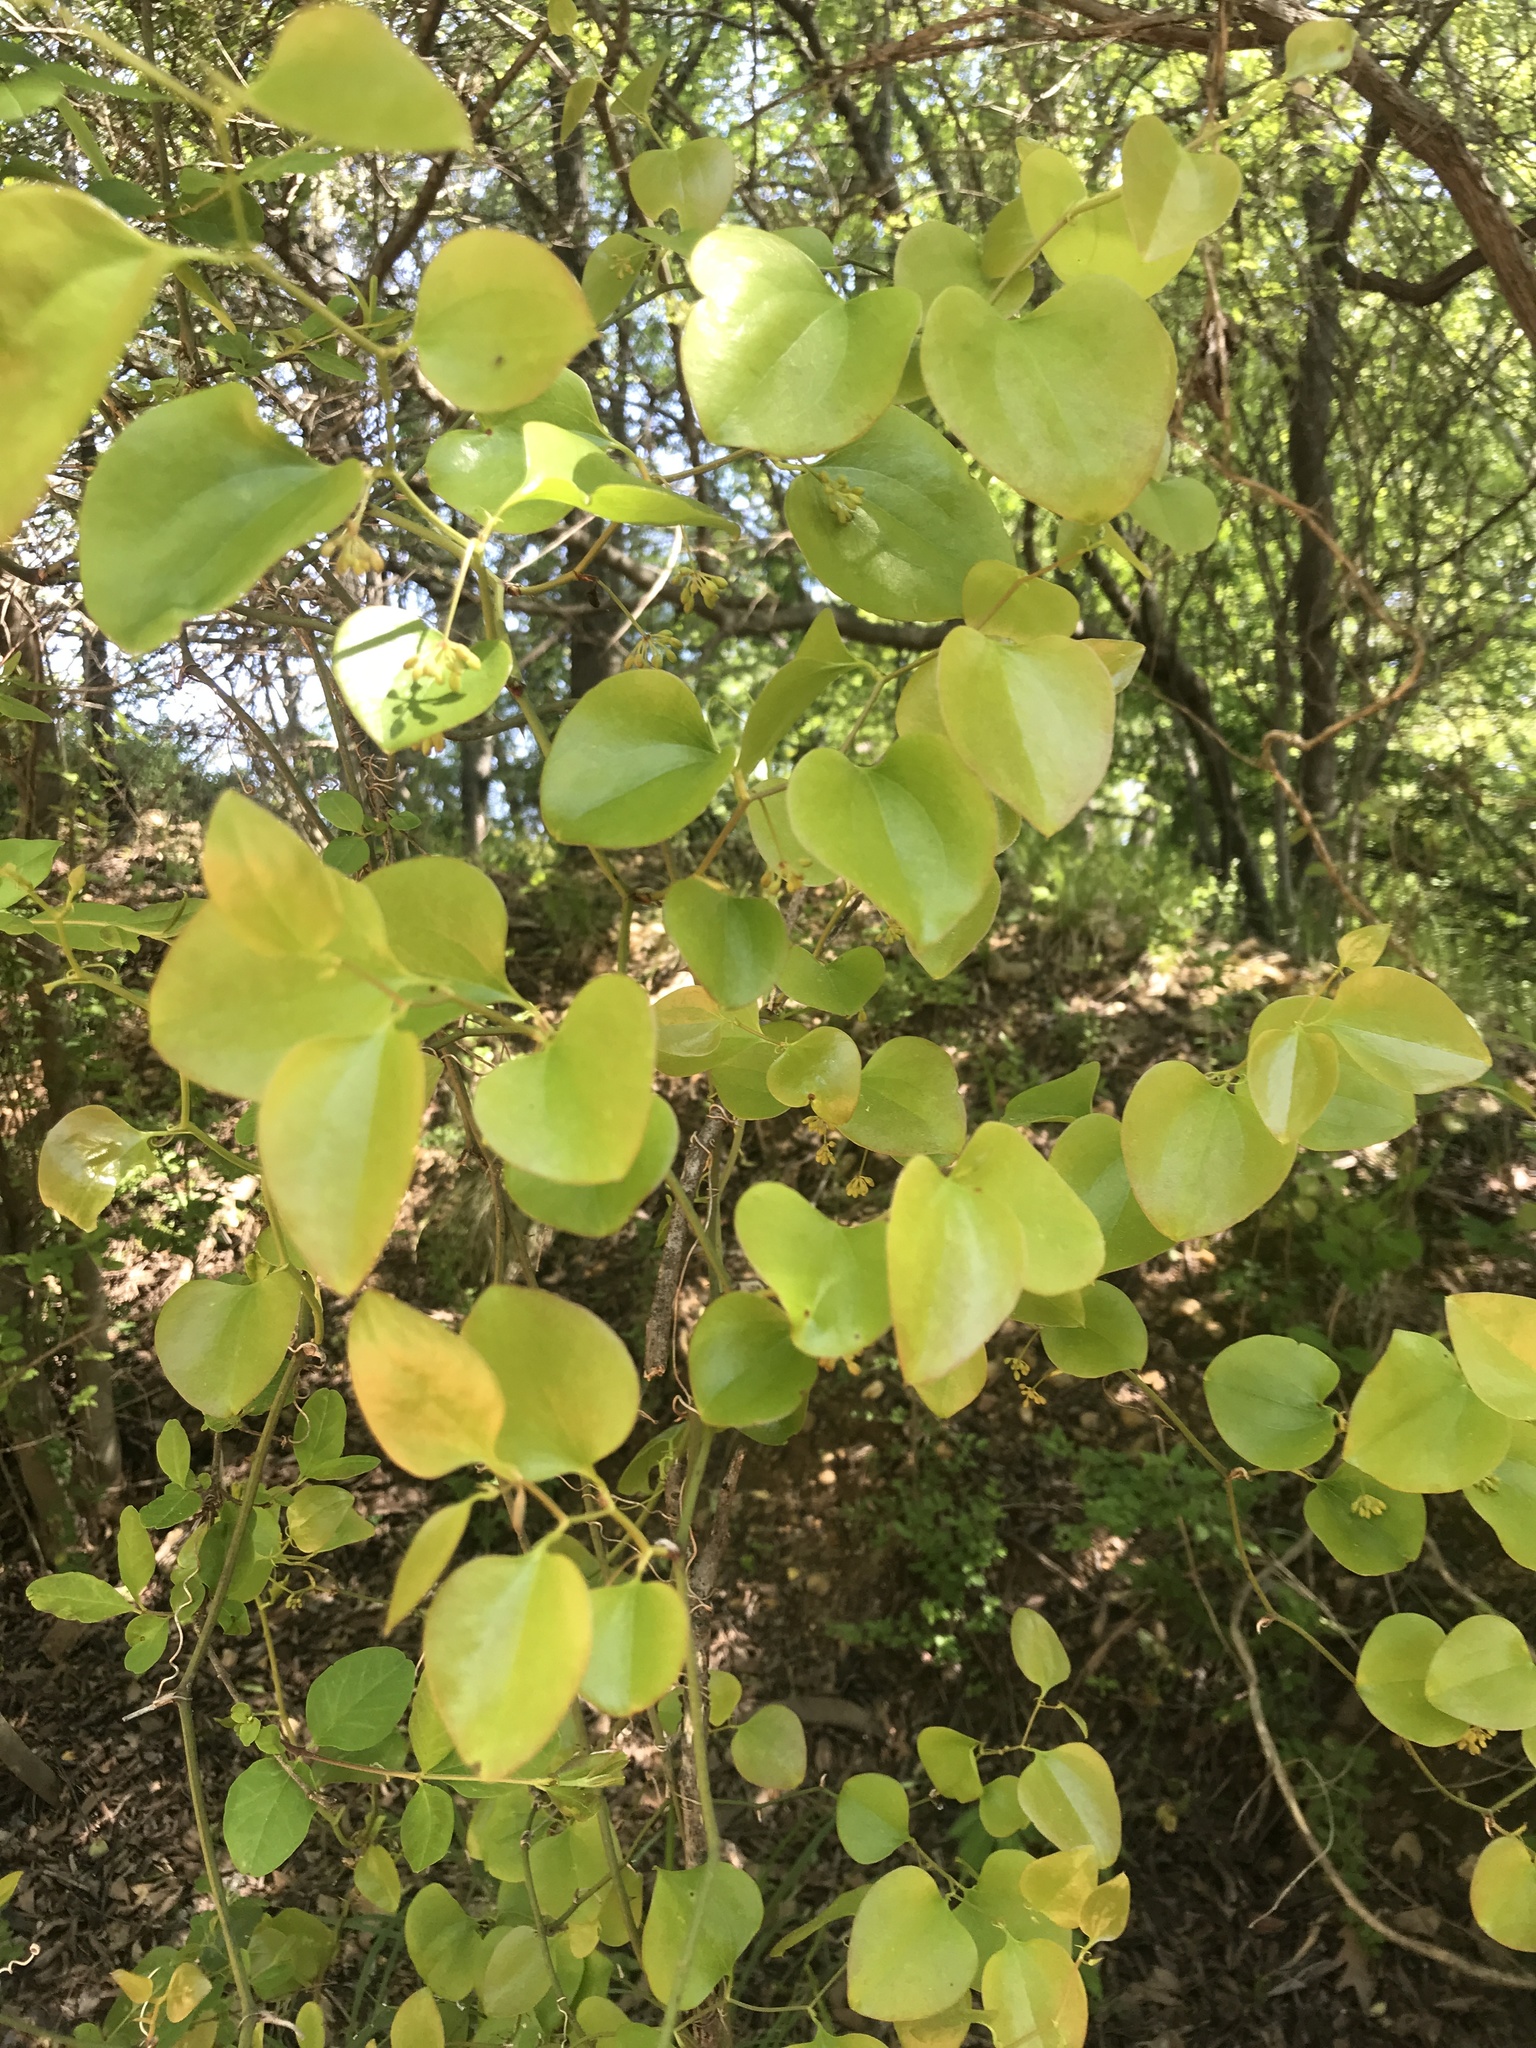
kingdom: Plantae
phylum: Tracheophyta
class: Liliopsida
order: Liliales
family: Smilacaceae
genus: Smilax
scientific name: Smilax rotundifolia
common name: Bullbriar
